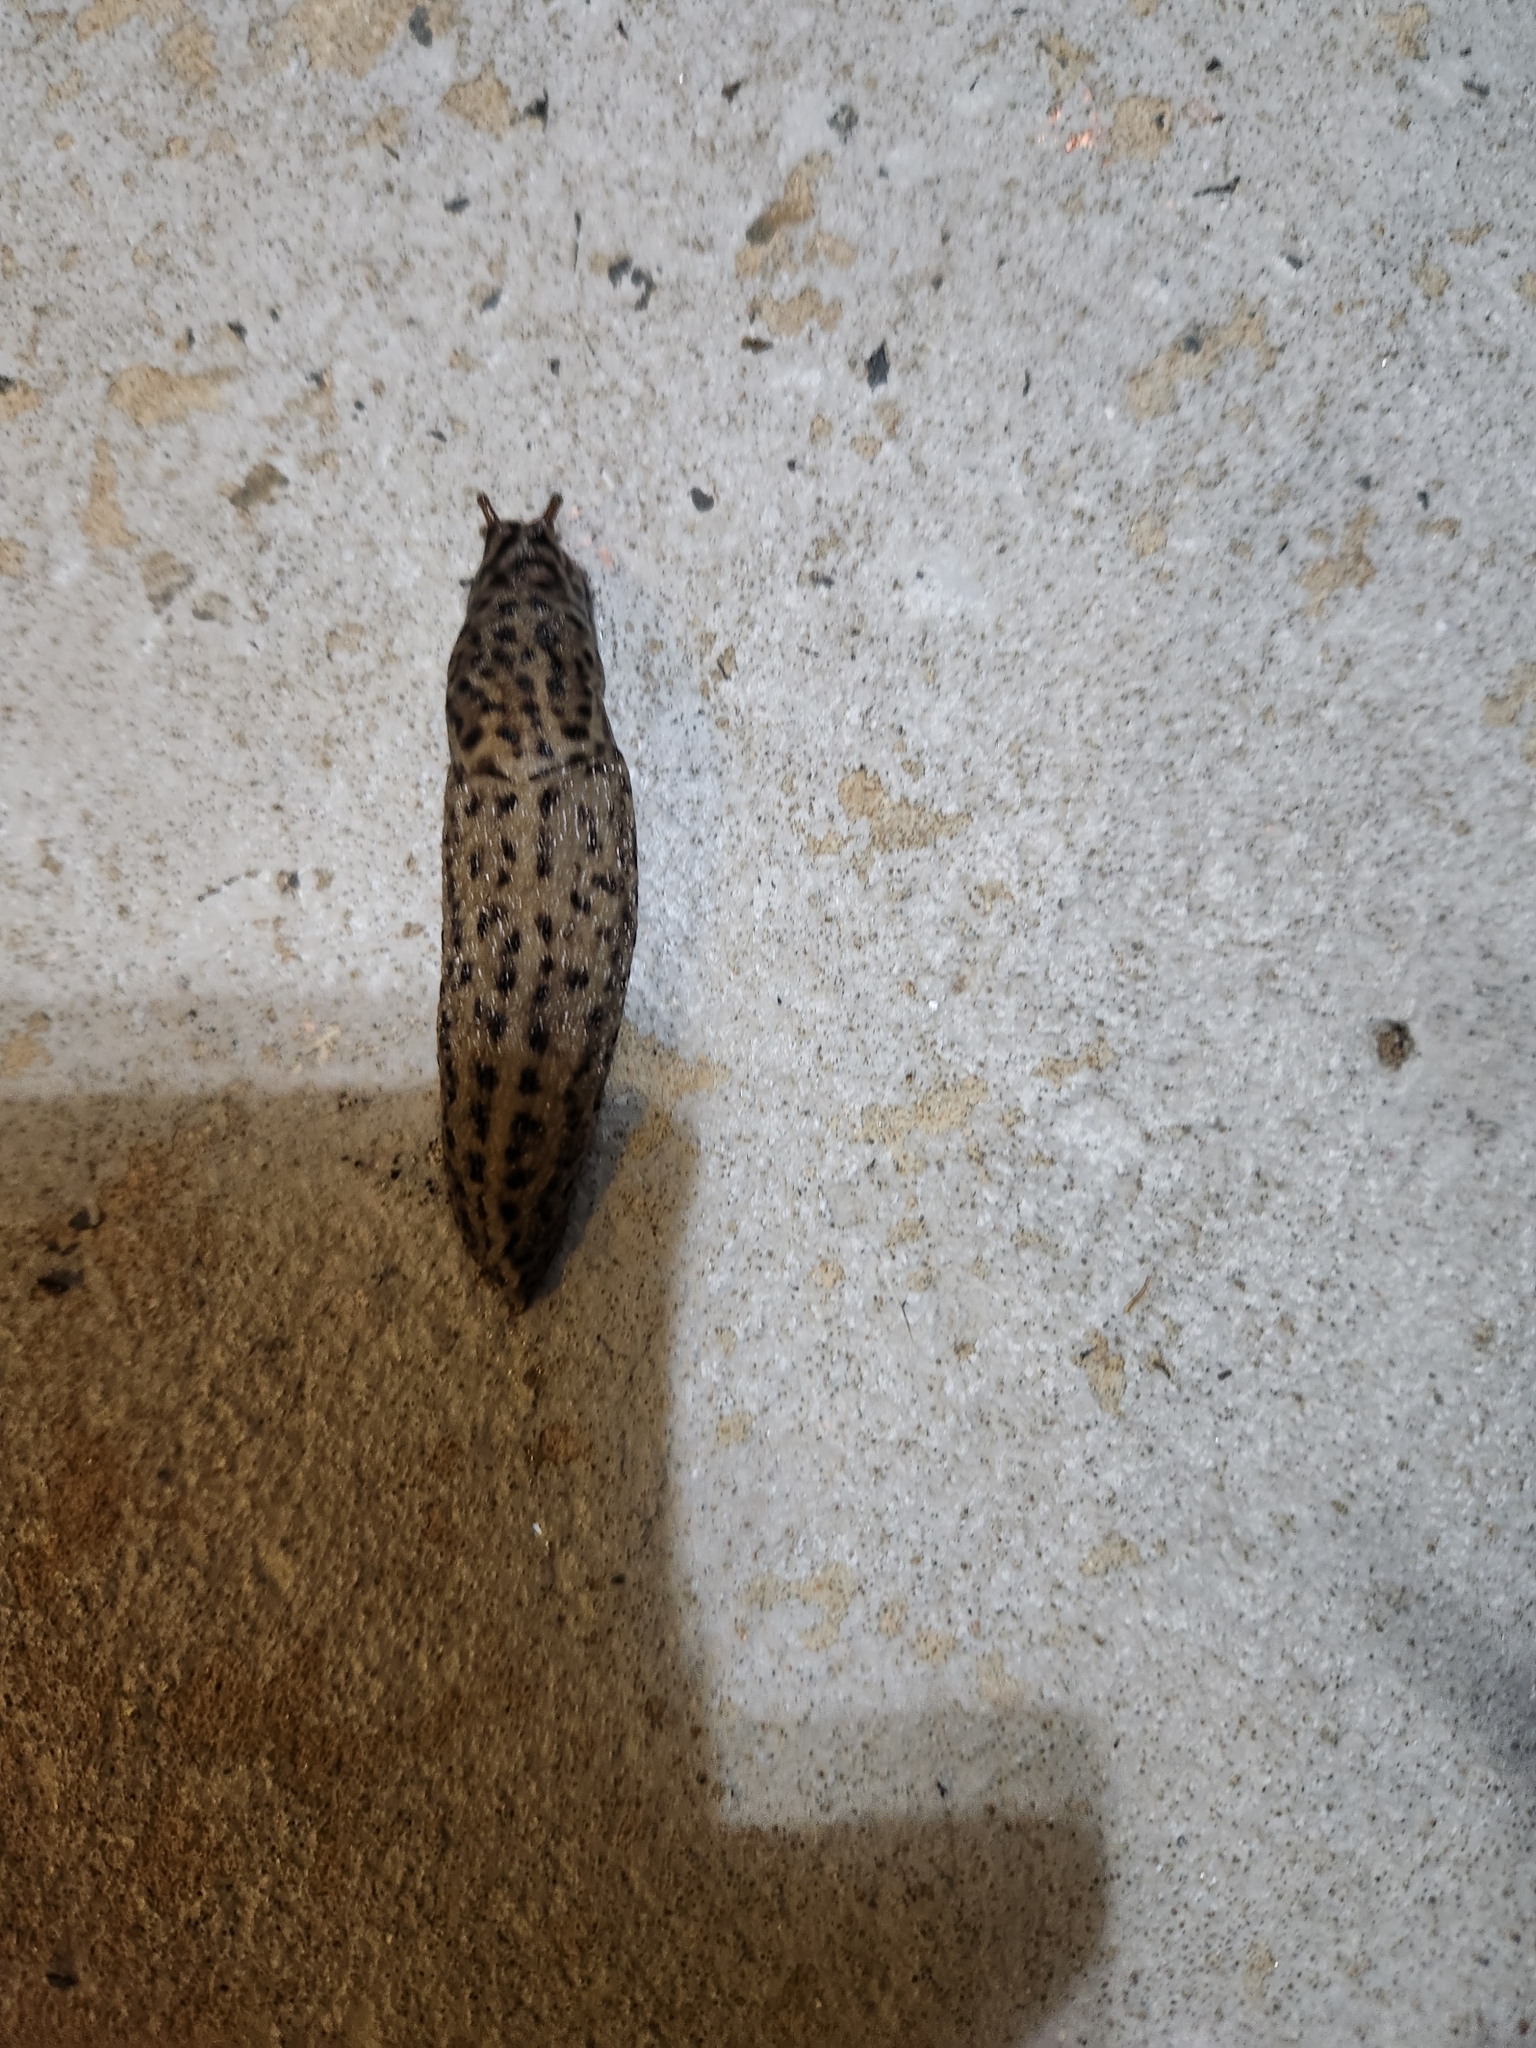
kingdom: Animalia
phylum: Mollusca
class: Gastropoda
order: Stylommatophora
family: Limacidae
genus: Limax
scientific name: Limax maximus
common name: Great grey slug
